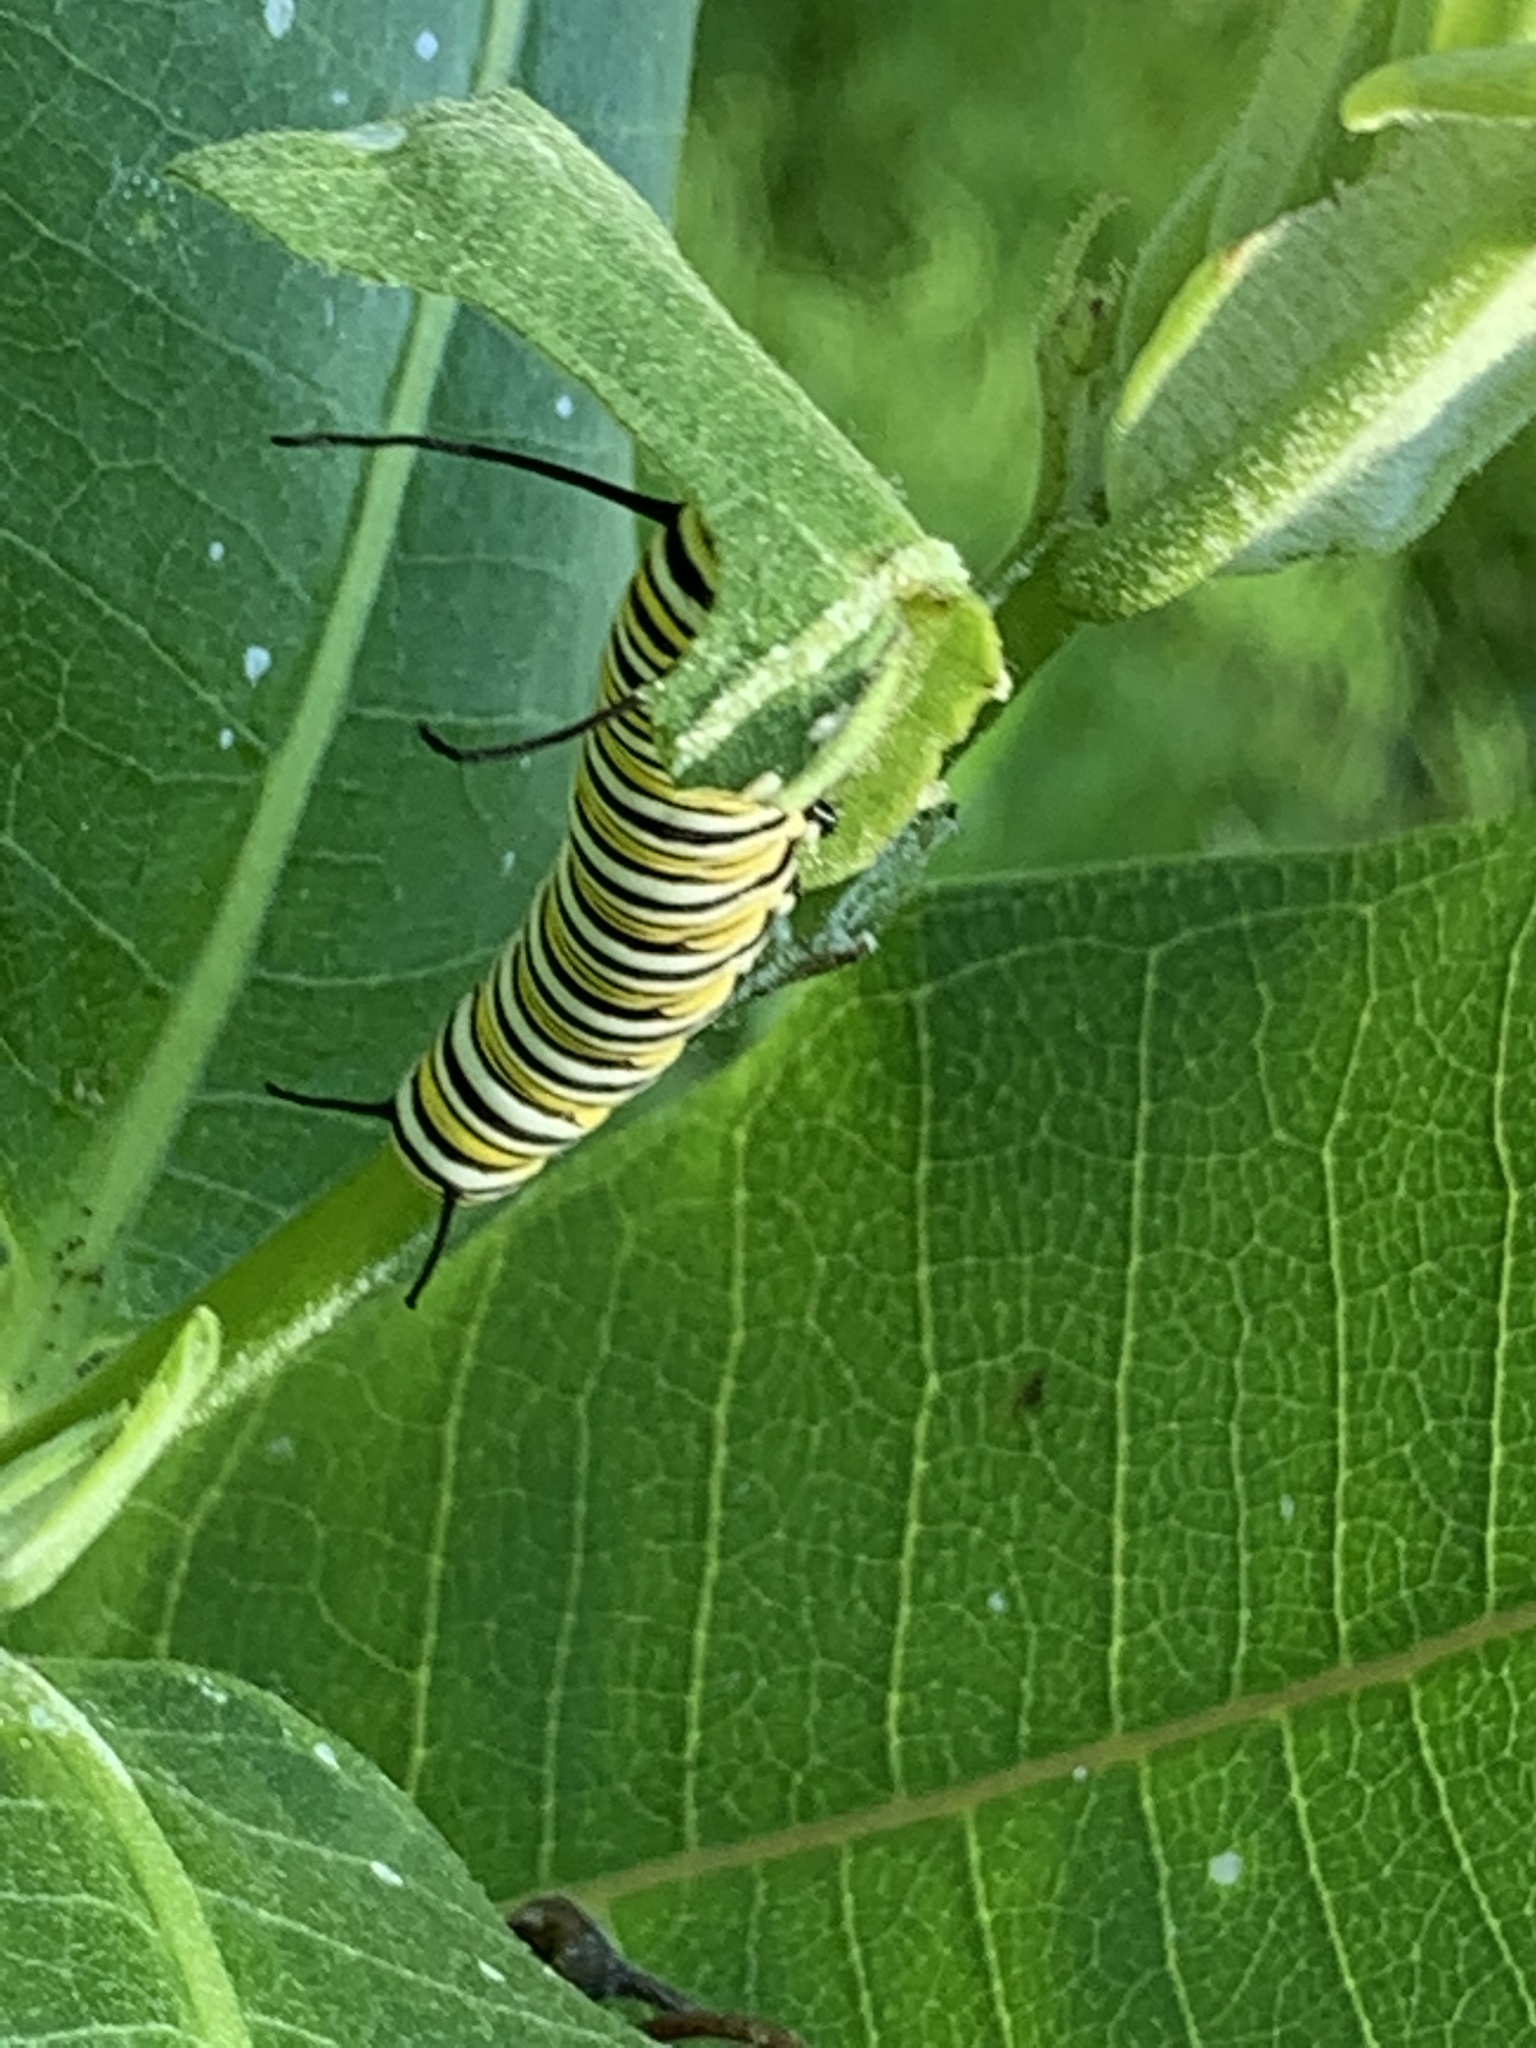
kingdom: Animalia
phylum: Arthropoda
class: Insecta
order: Lepidoptera
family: Nymphalidae
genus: Danaus
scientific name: Danaus plexippus
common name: Monarch
